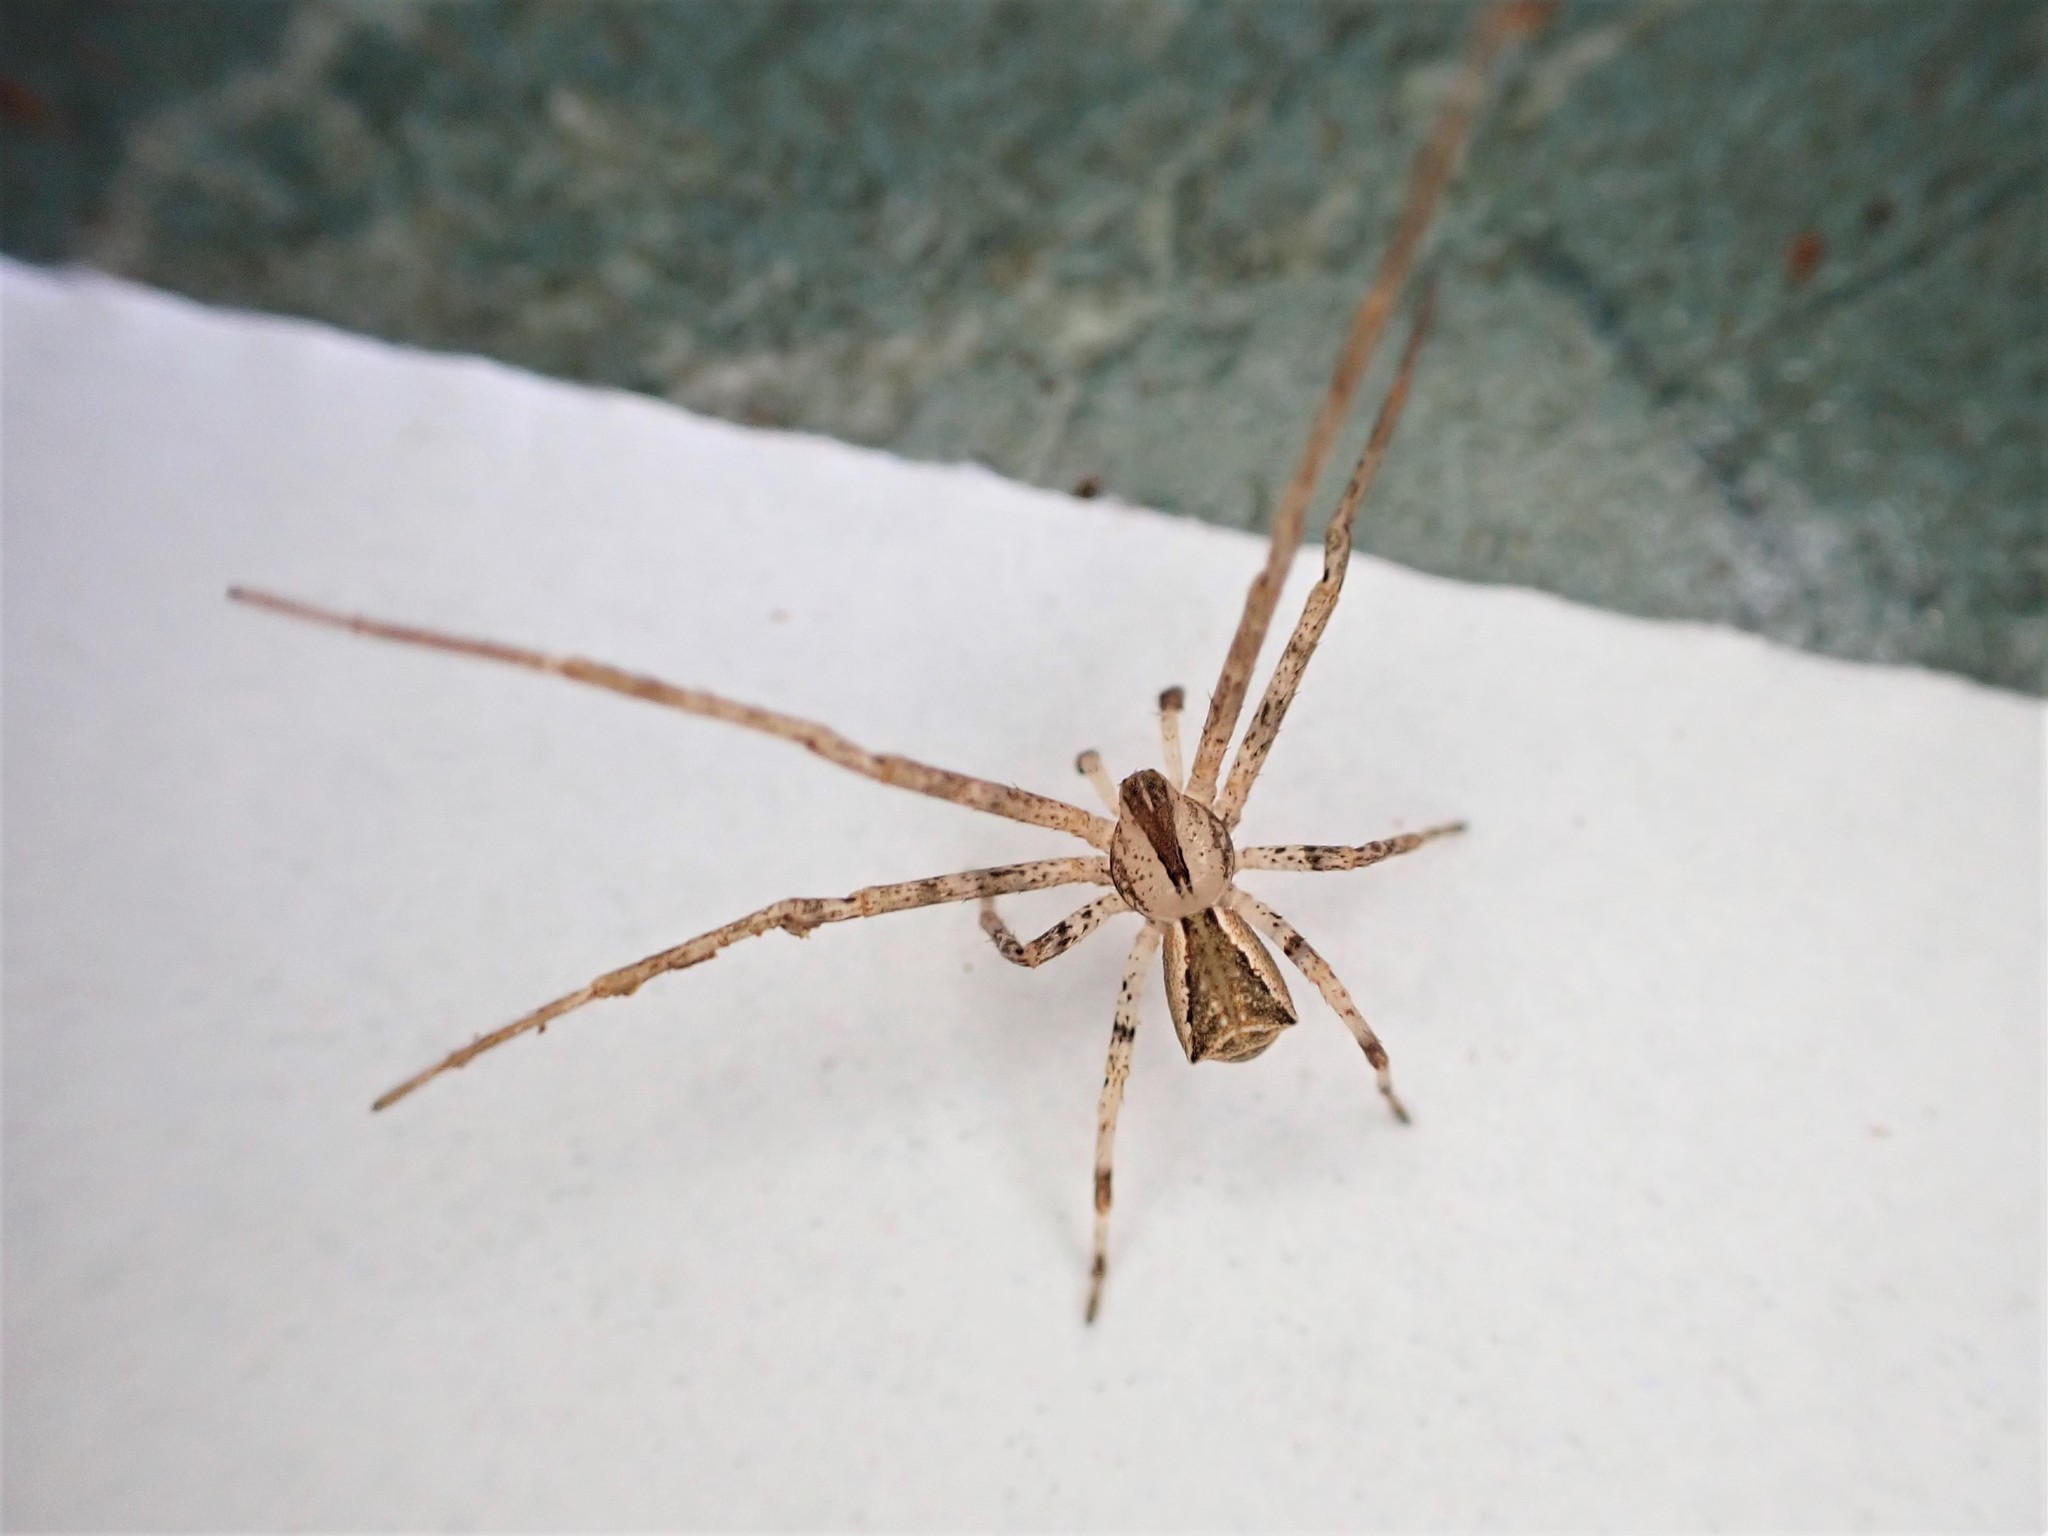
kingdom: Animalia
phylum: Arthropoda
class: Arachnida
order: Araneae
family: Thomisidae
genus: Sidymella
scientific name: Sidymella longipes
